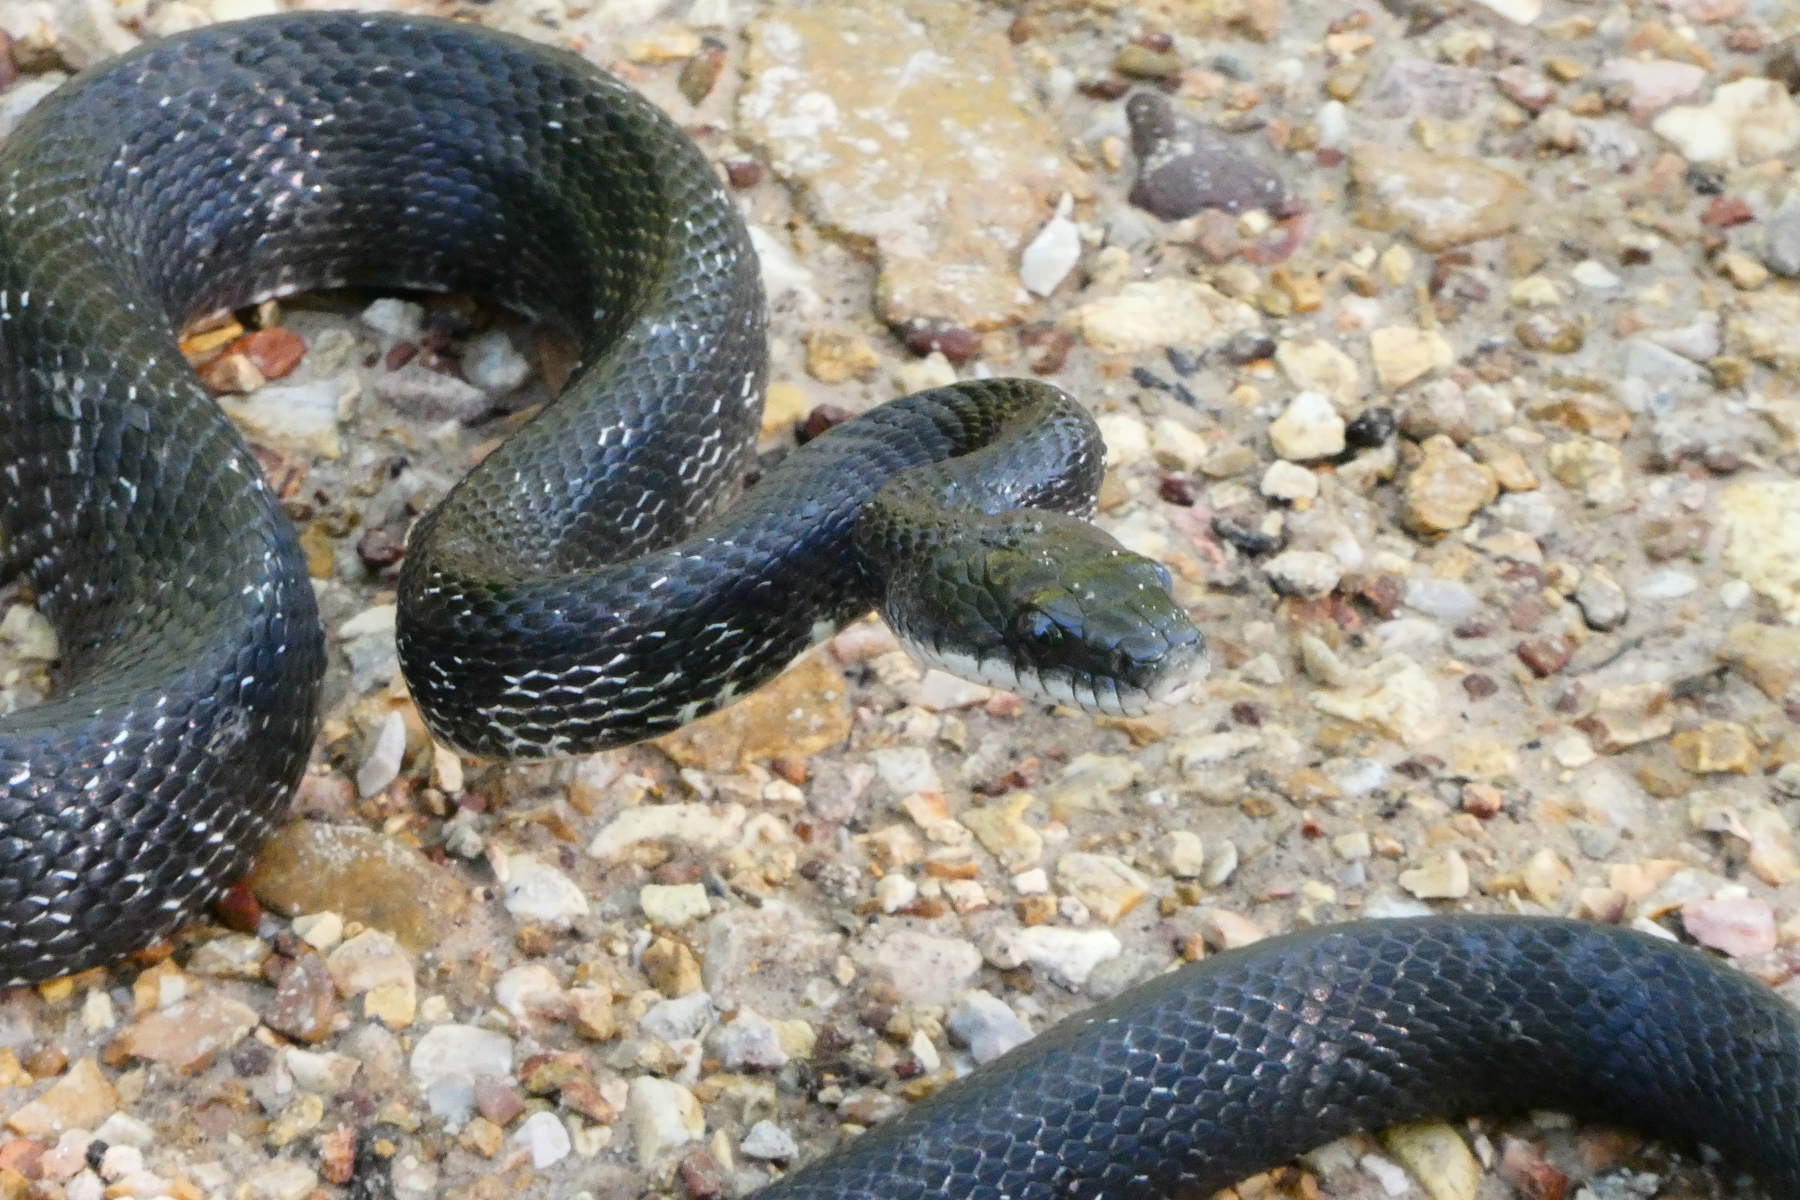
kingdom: Animalia
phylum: Chordata
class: Squamata
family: Colubridae
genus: Pantherophis
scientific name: Pantherophis obsoletus
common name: Black rat snake
